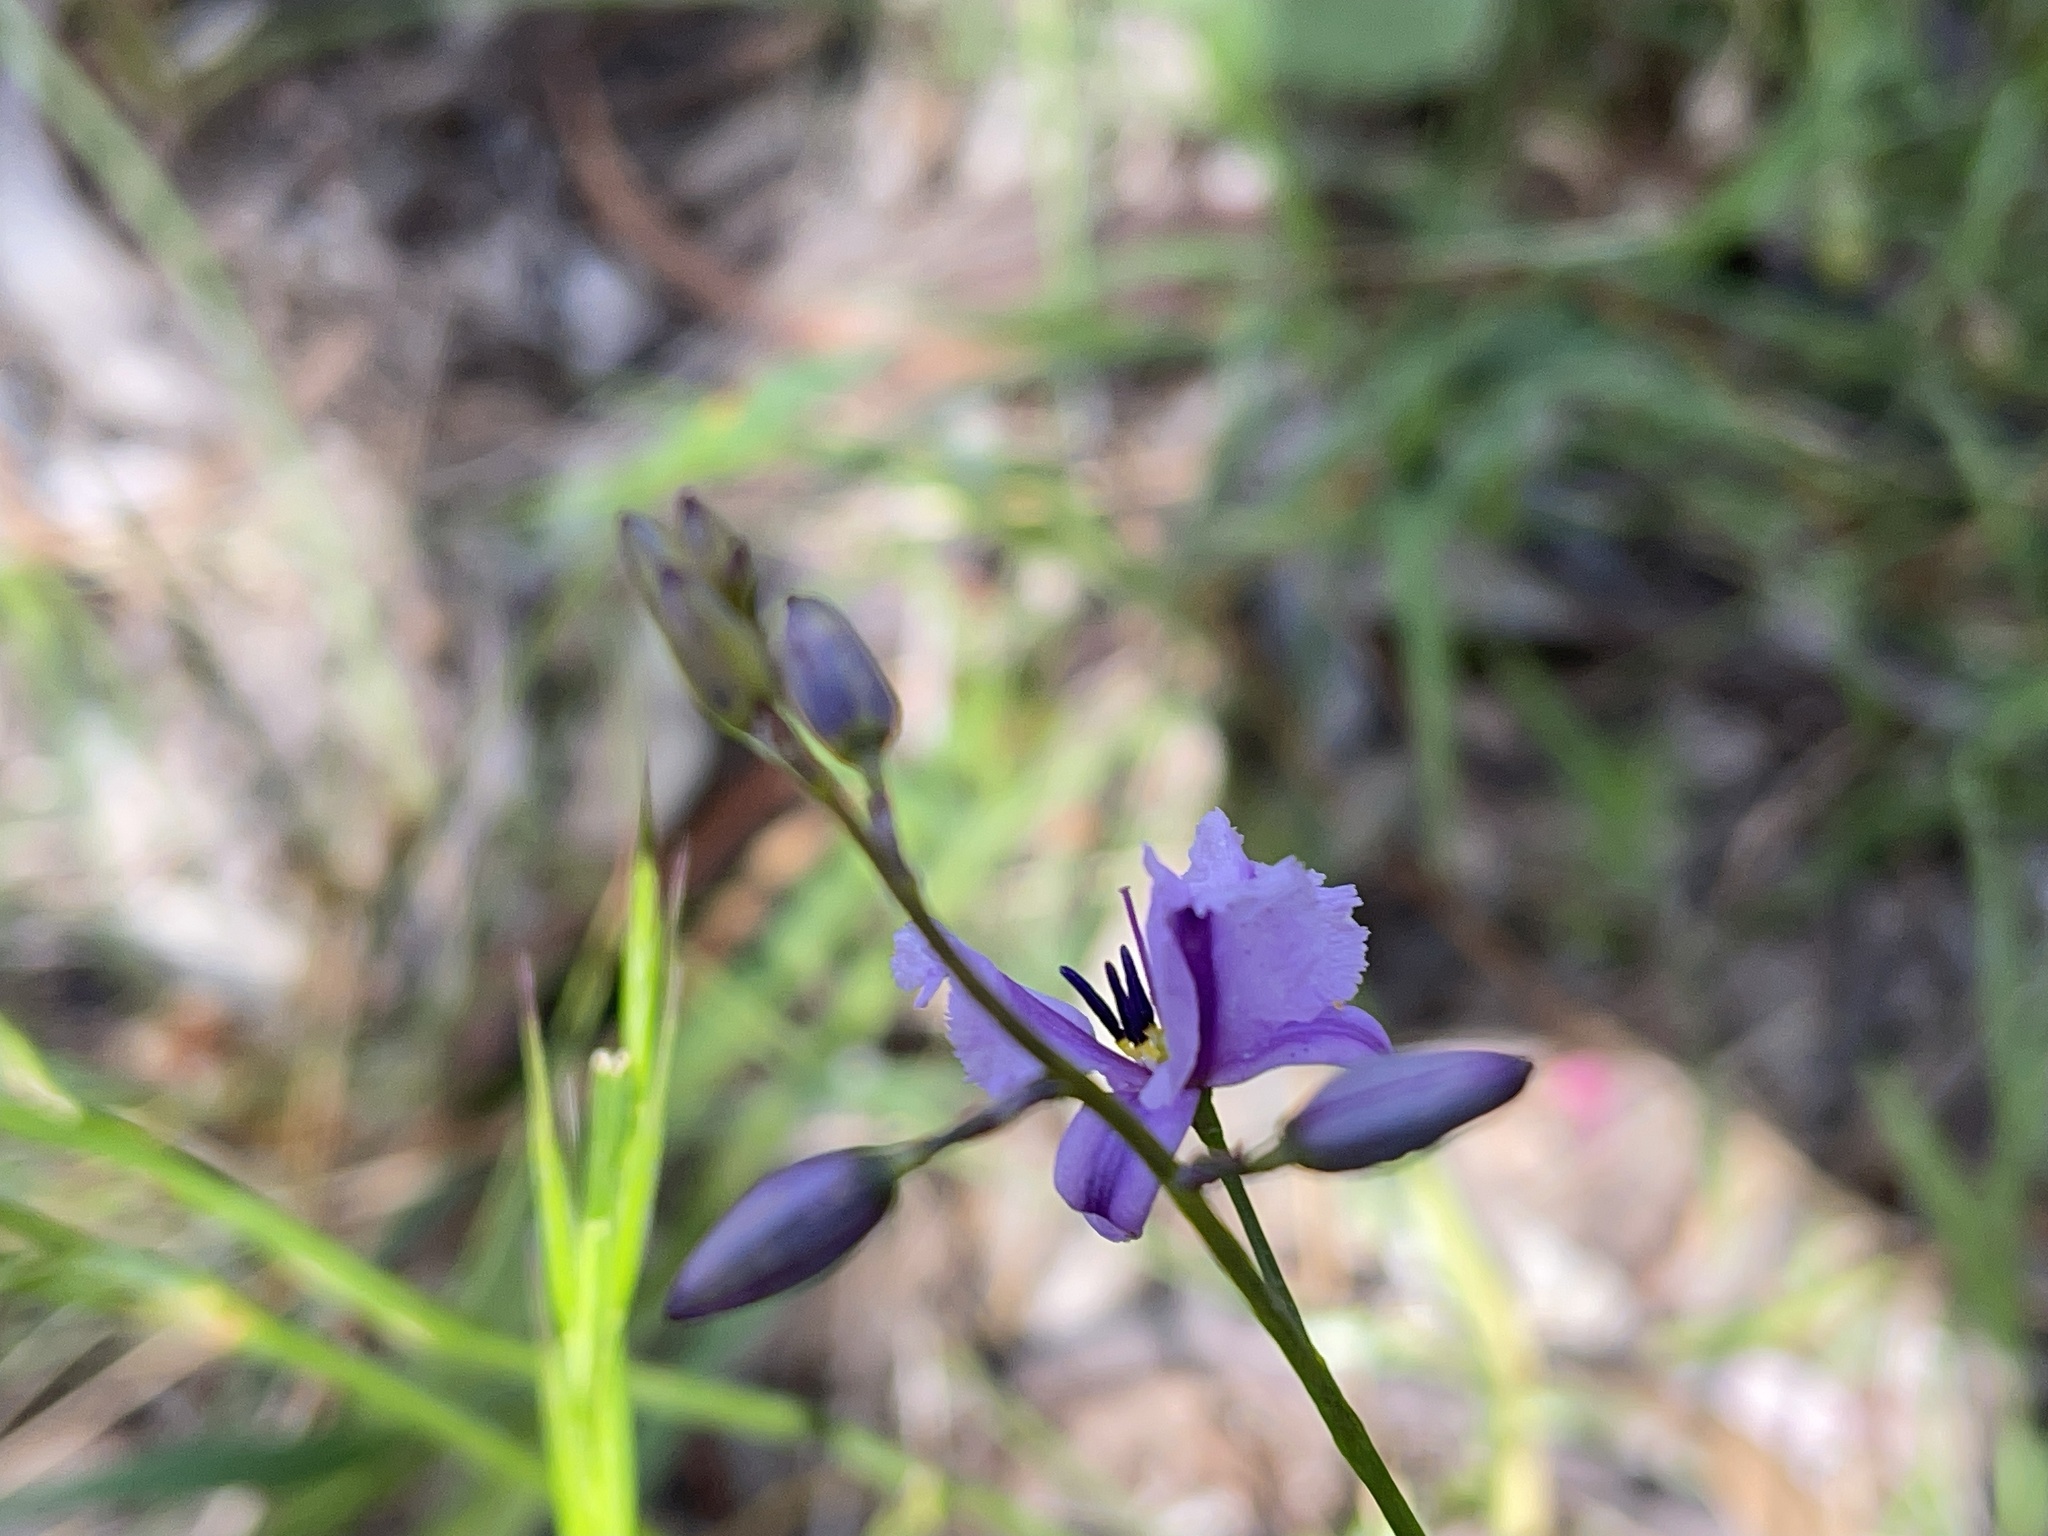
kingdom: Plantae
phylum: Tracheophyta
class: Liliopsida
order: Asparagales
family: Asparagaceae
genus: Arthropodium
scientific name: Arthropodium strictum
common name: Chocolate-lily
